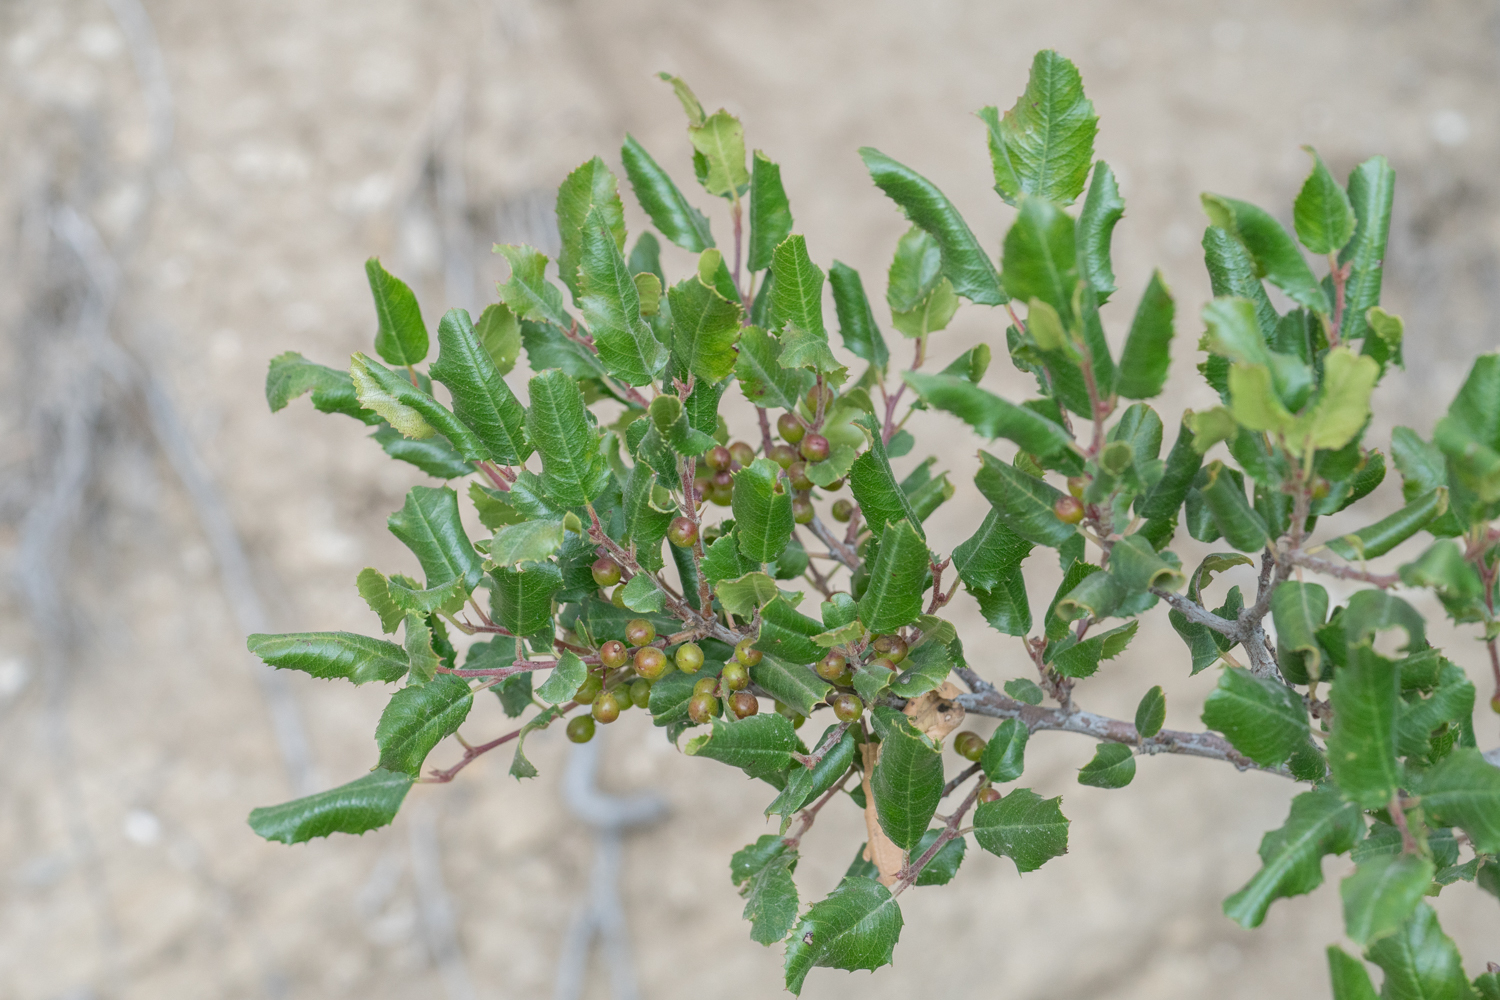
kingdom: Plantae
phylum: Tracheophyta
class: Magnoliopsida
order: Rosales
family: Rhamnaceae
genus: Endotropis
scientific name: Endotropis crocea
